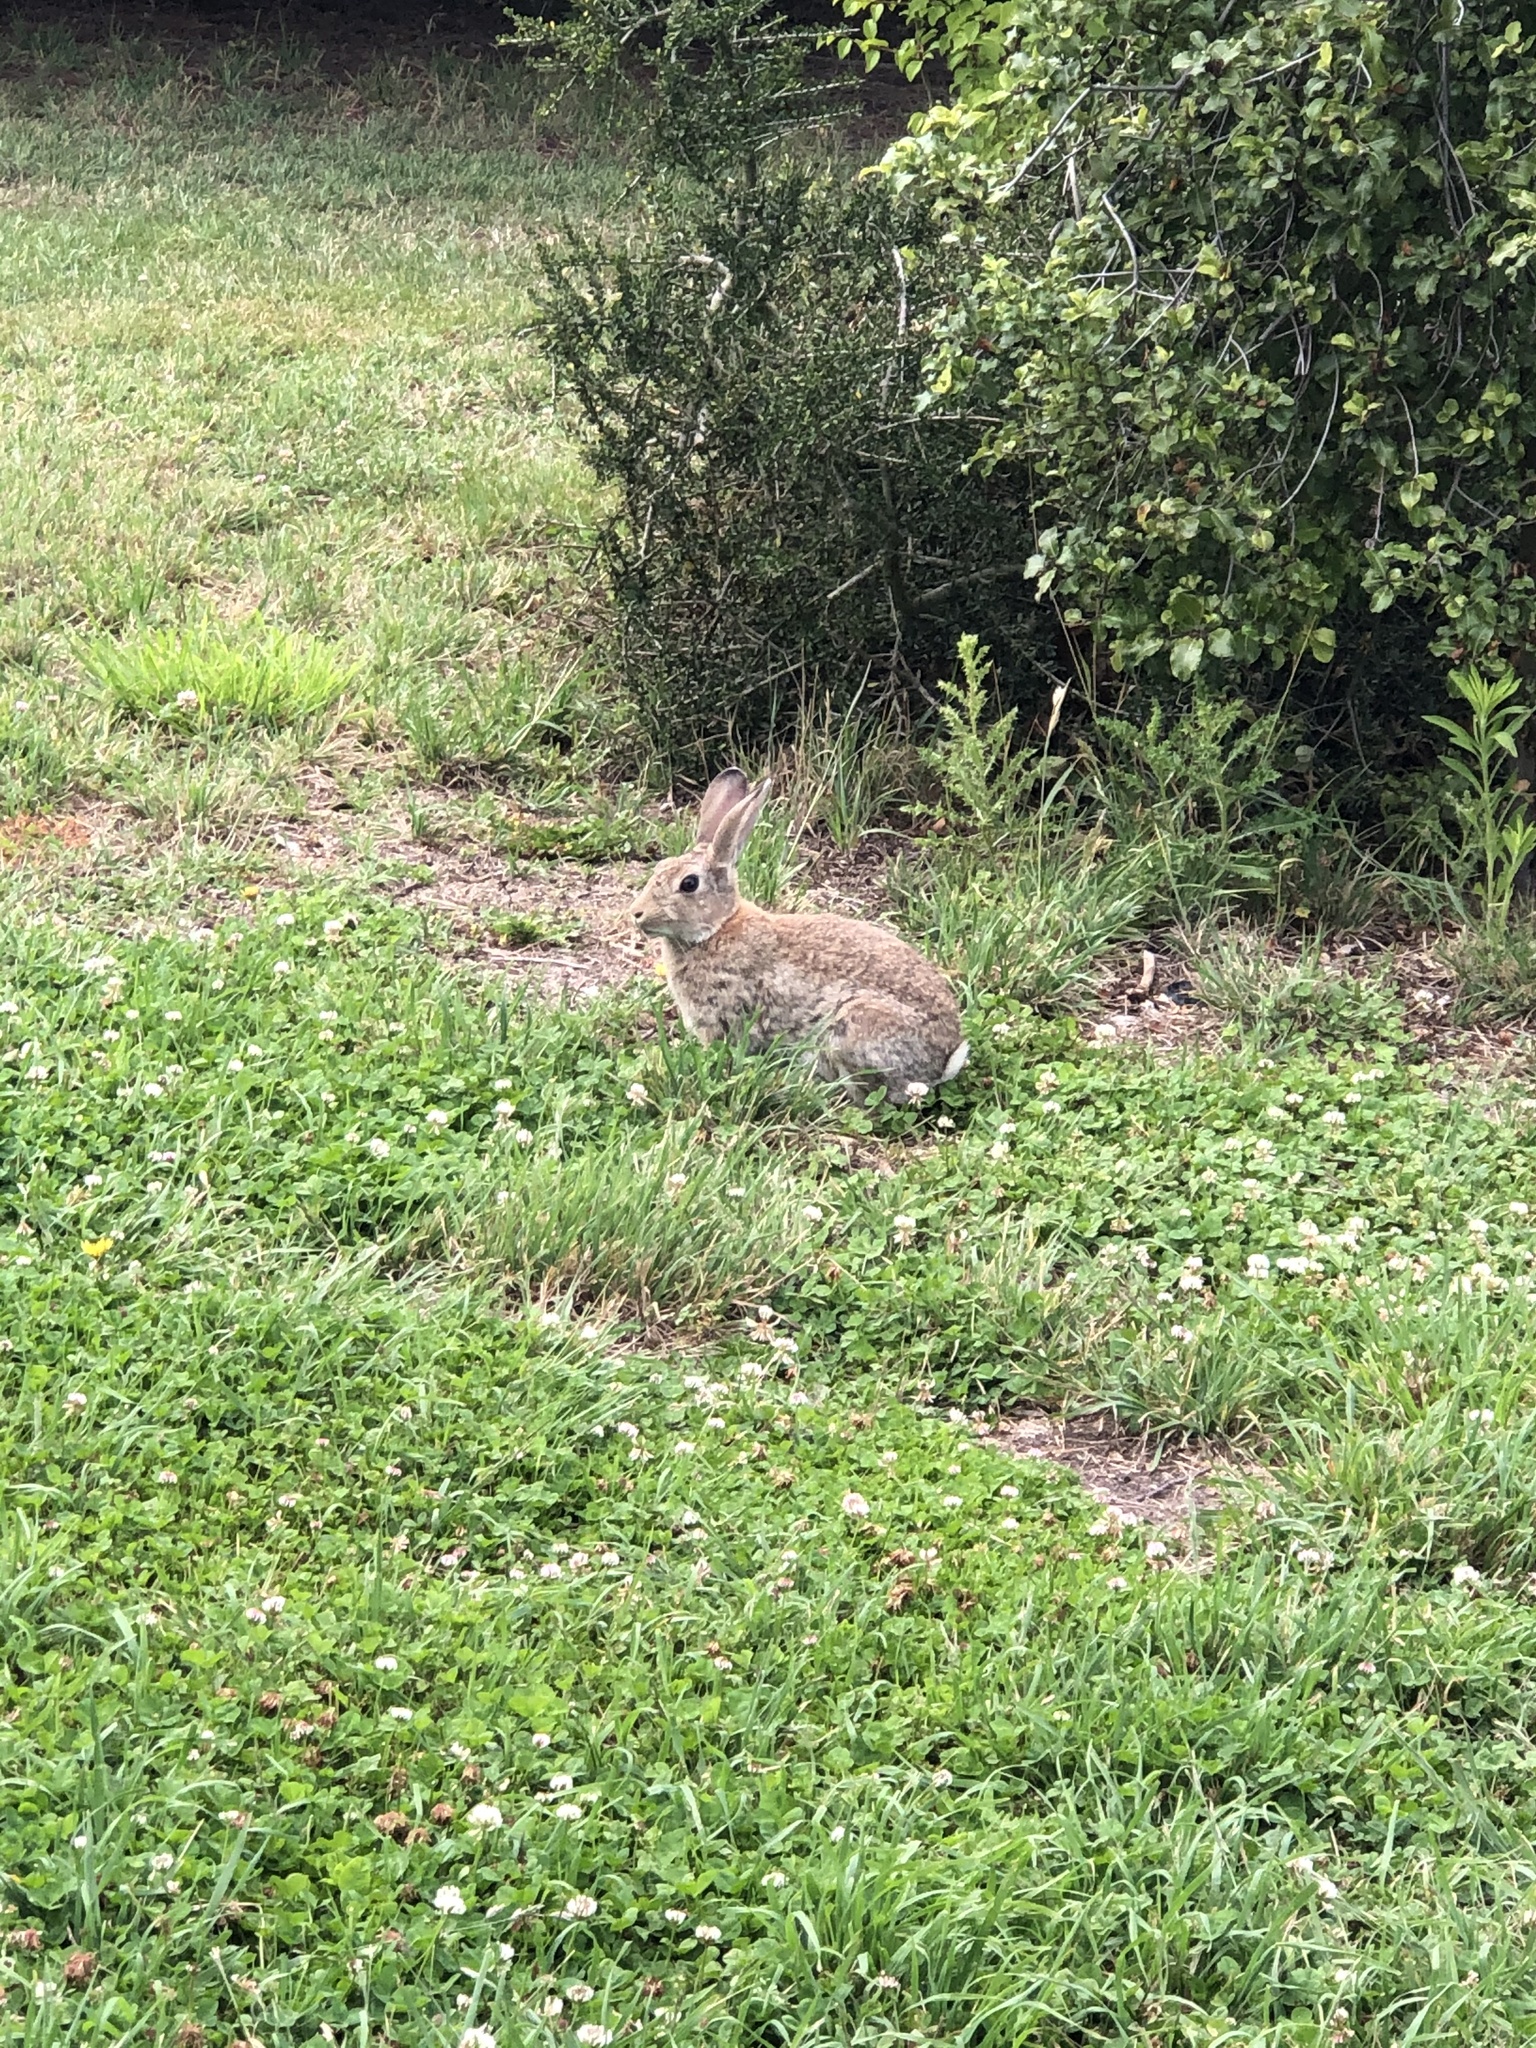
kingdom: Animalia
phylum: Chordata
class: Mammalia
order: Lagomorpha
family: Leporidae
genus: Oryctolagus
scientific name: Oryctolagus cuniculus
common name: European rabbit
